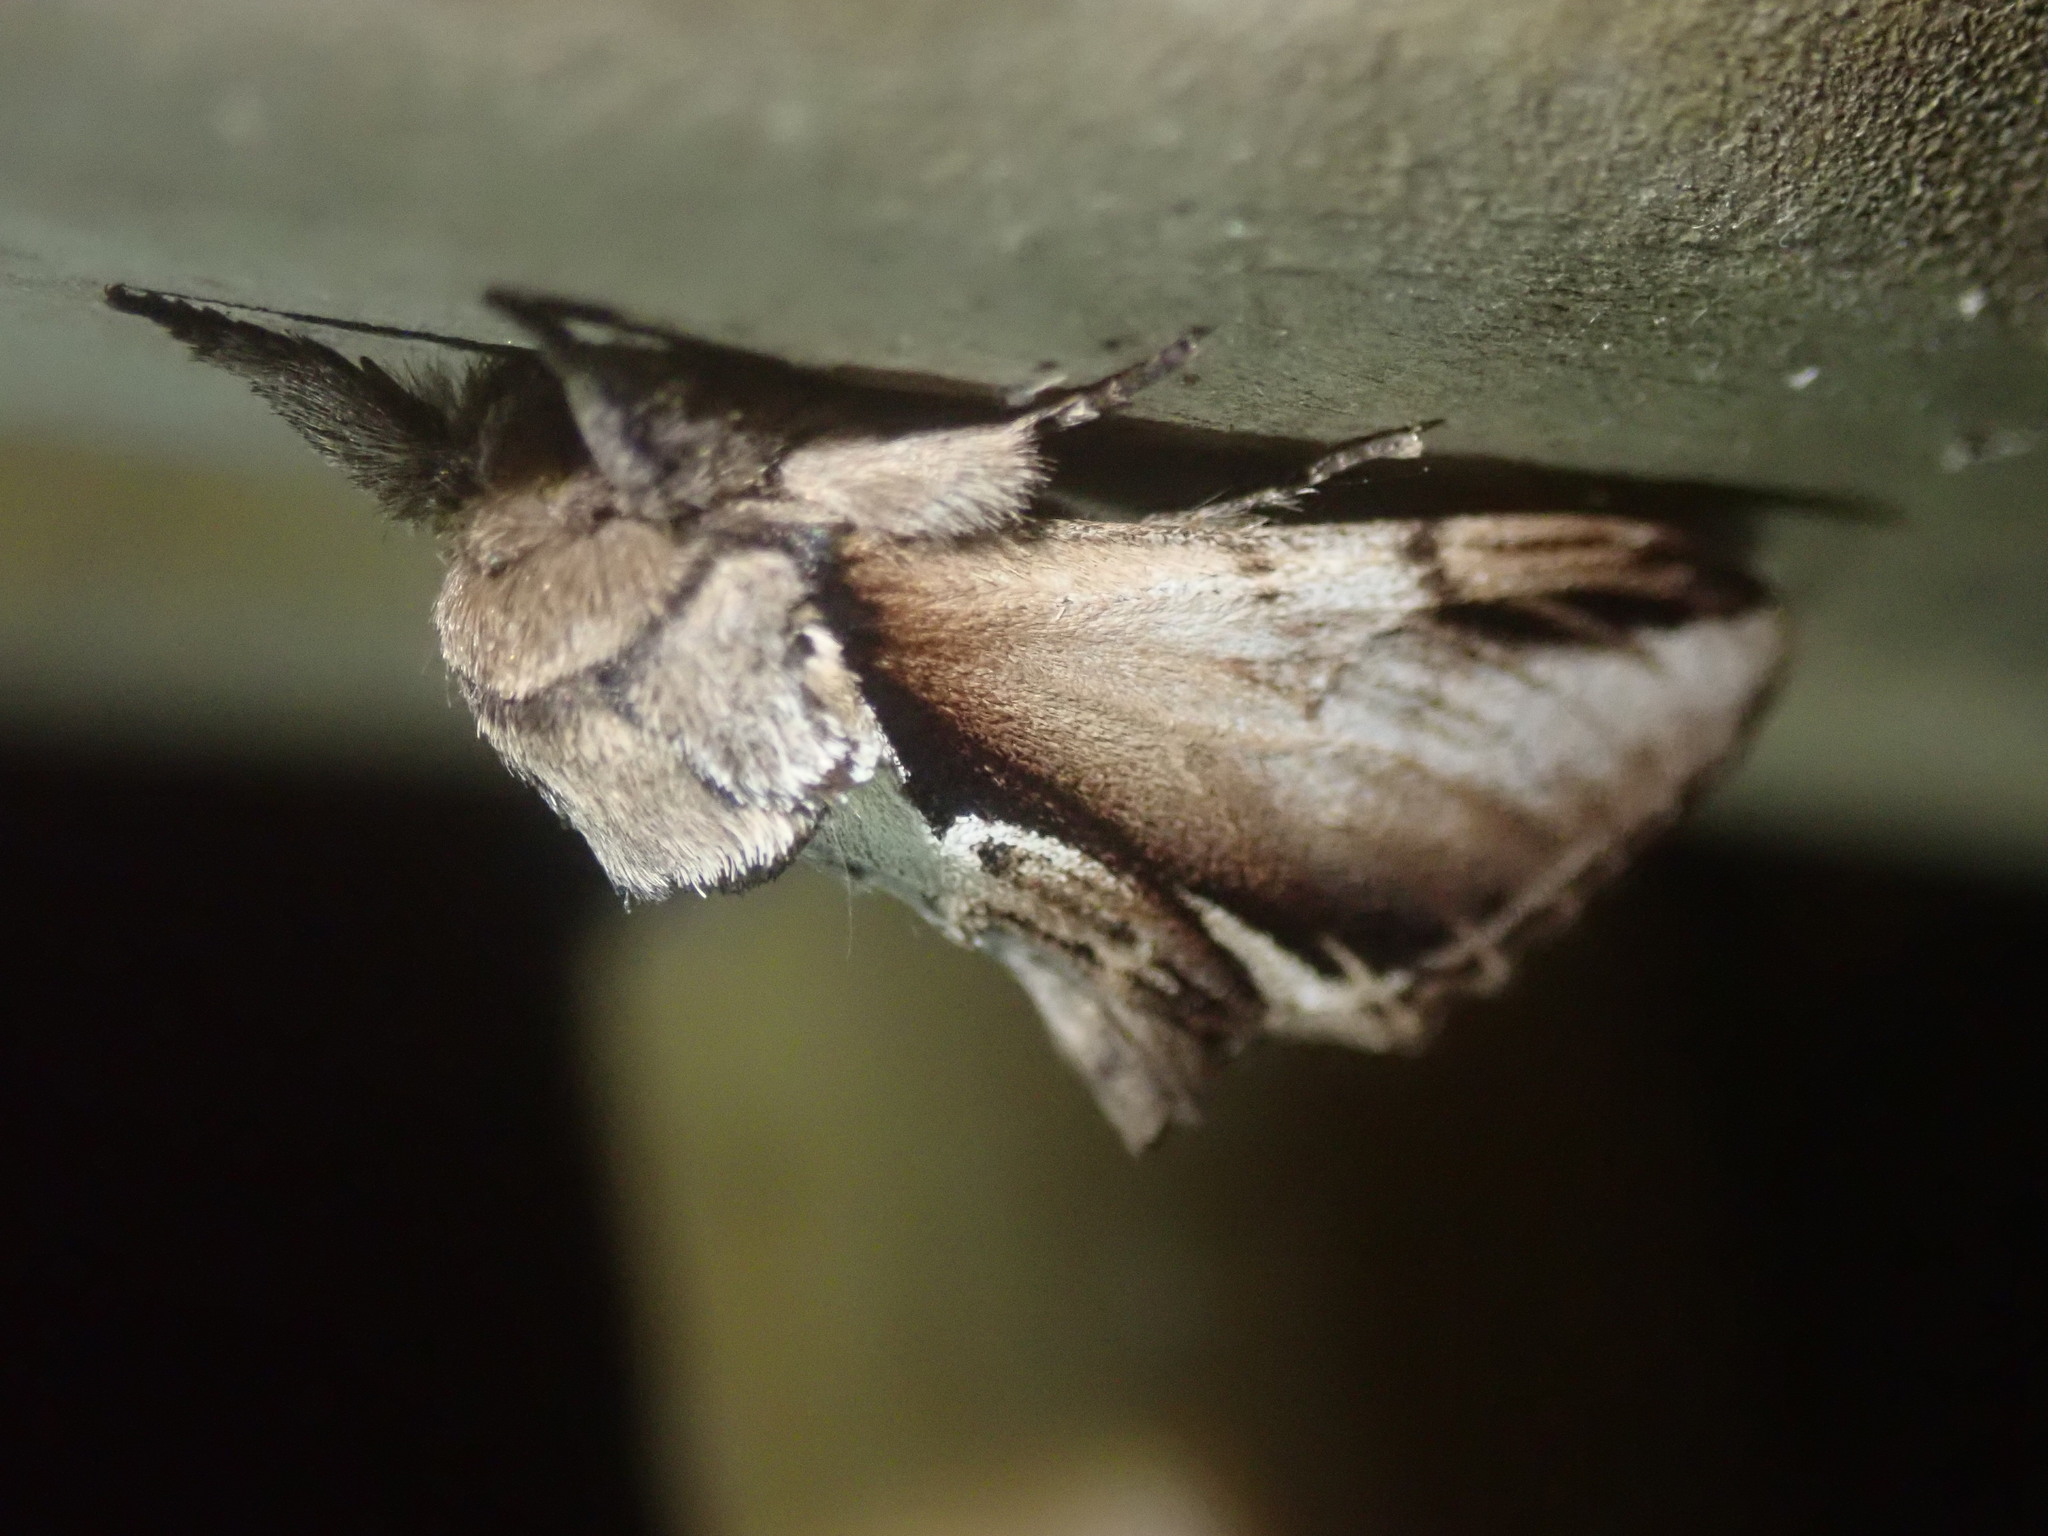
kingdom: Animalia
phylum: Arthropoda
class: Insecta
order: Lepidoptera
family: Notodontidae
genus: Pheosia
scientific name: Pheosia gnoma
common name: Lesser swallow prominent
